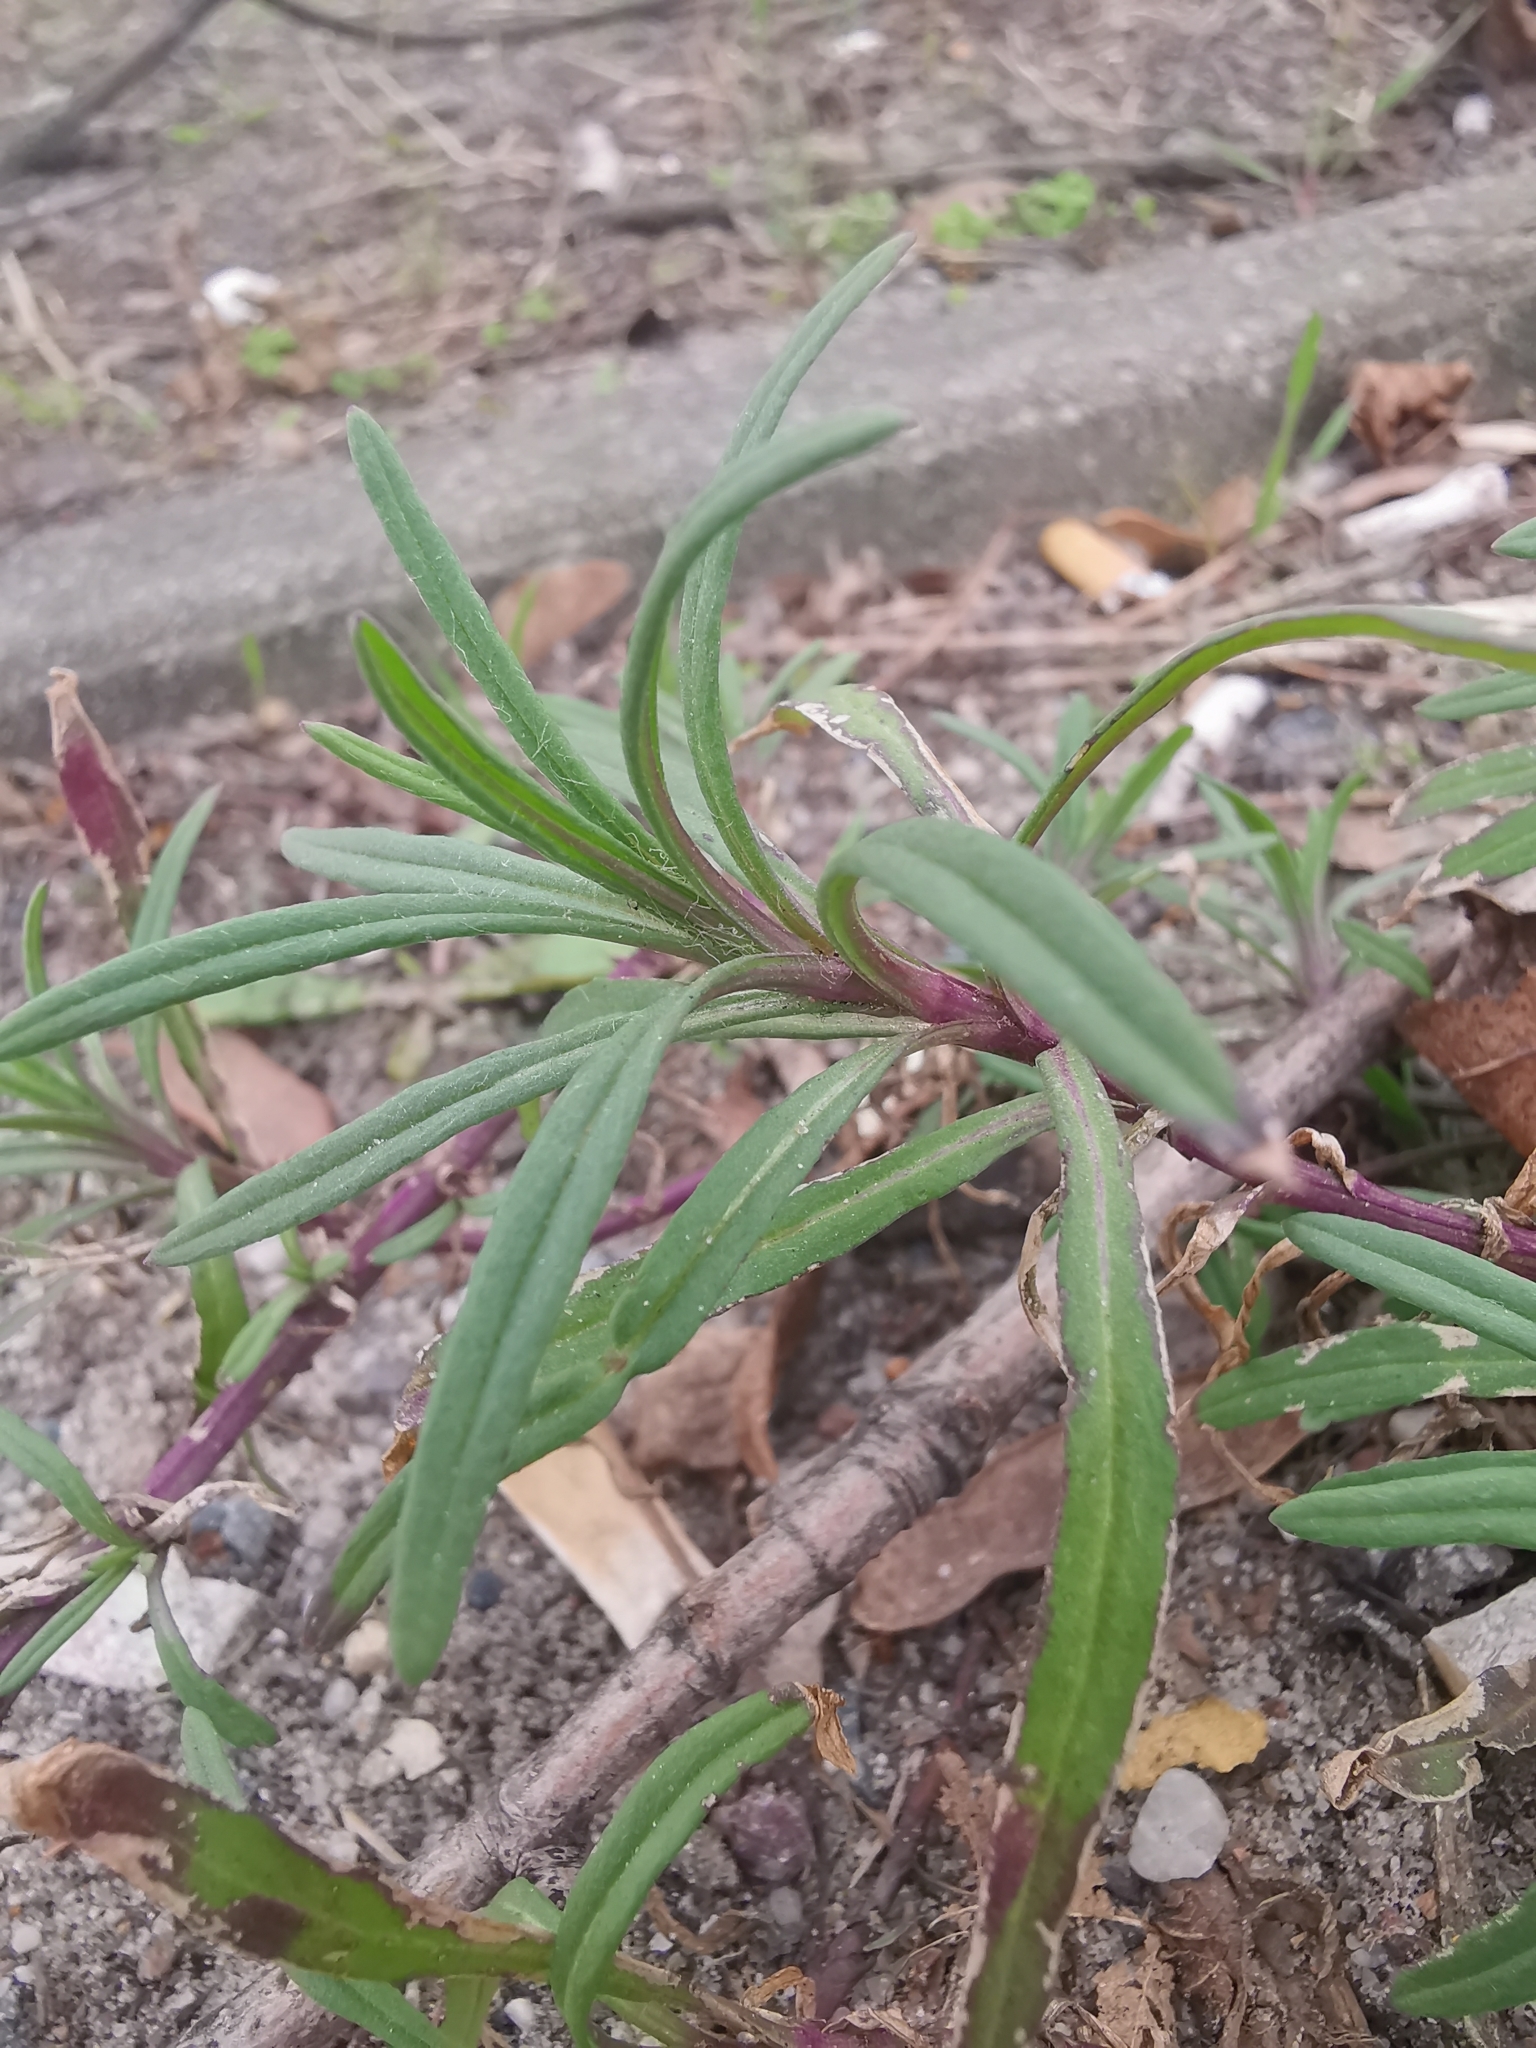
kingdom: Plantae
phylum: Tracheophyta
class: Magnoliopsida
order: Asterales
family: Asteraceae
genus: Senecio
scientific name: Senecio inaequidens
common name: Narrow-leaved ragwort
